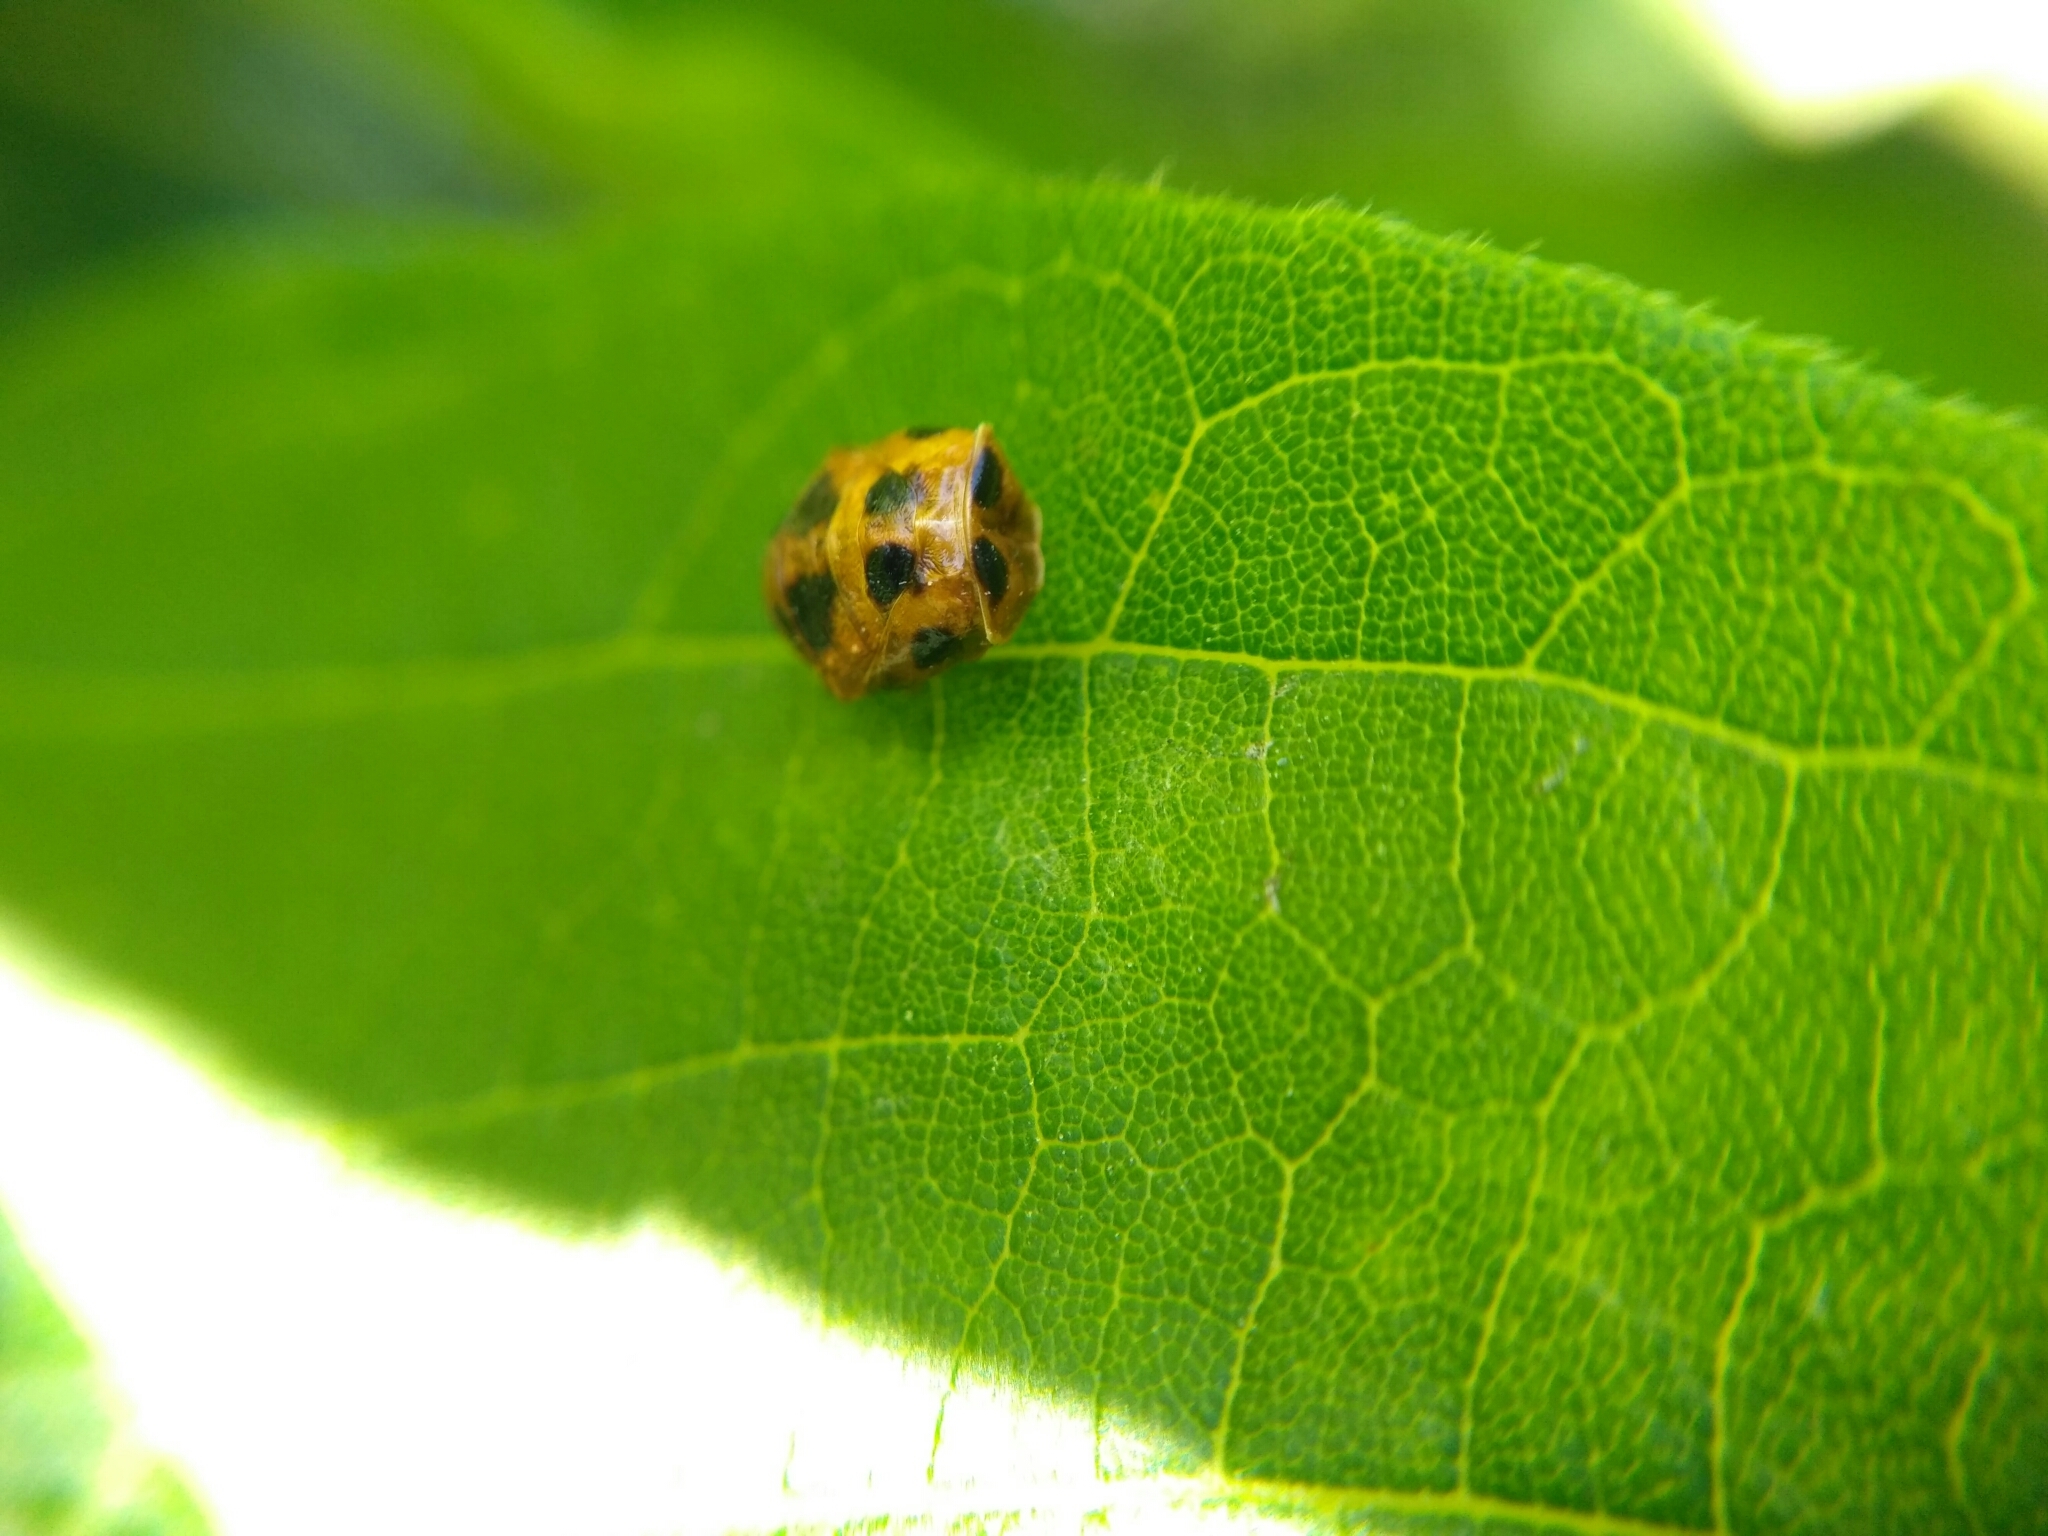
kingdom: Animalia
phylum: Arthropoda
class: Insecta
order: Coleoptera
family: Coccinellidae
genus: Harmonia
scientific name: Harmonia axyridis
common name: Harlequin ladybird
